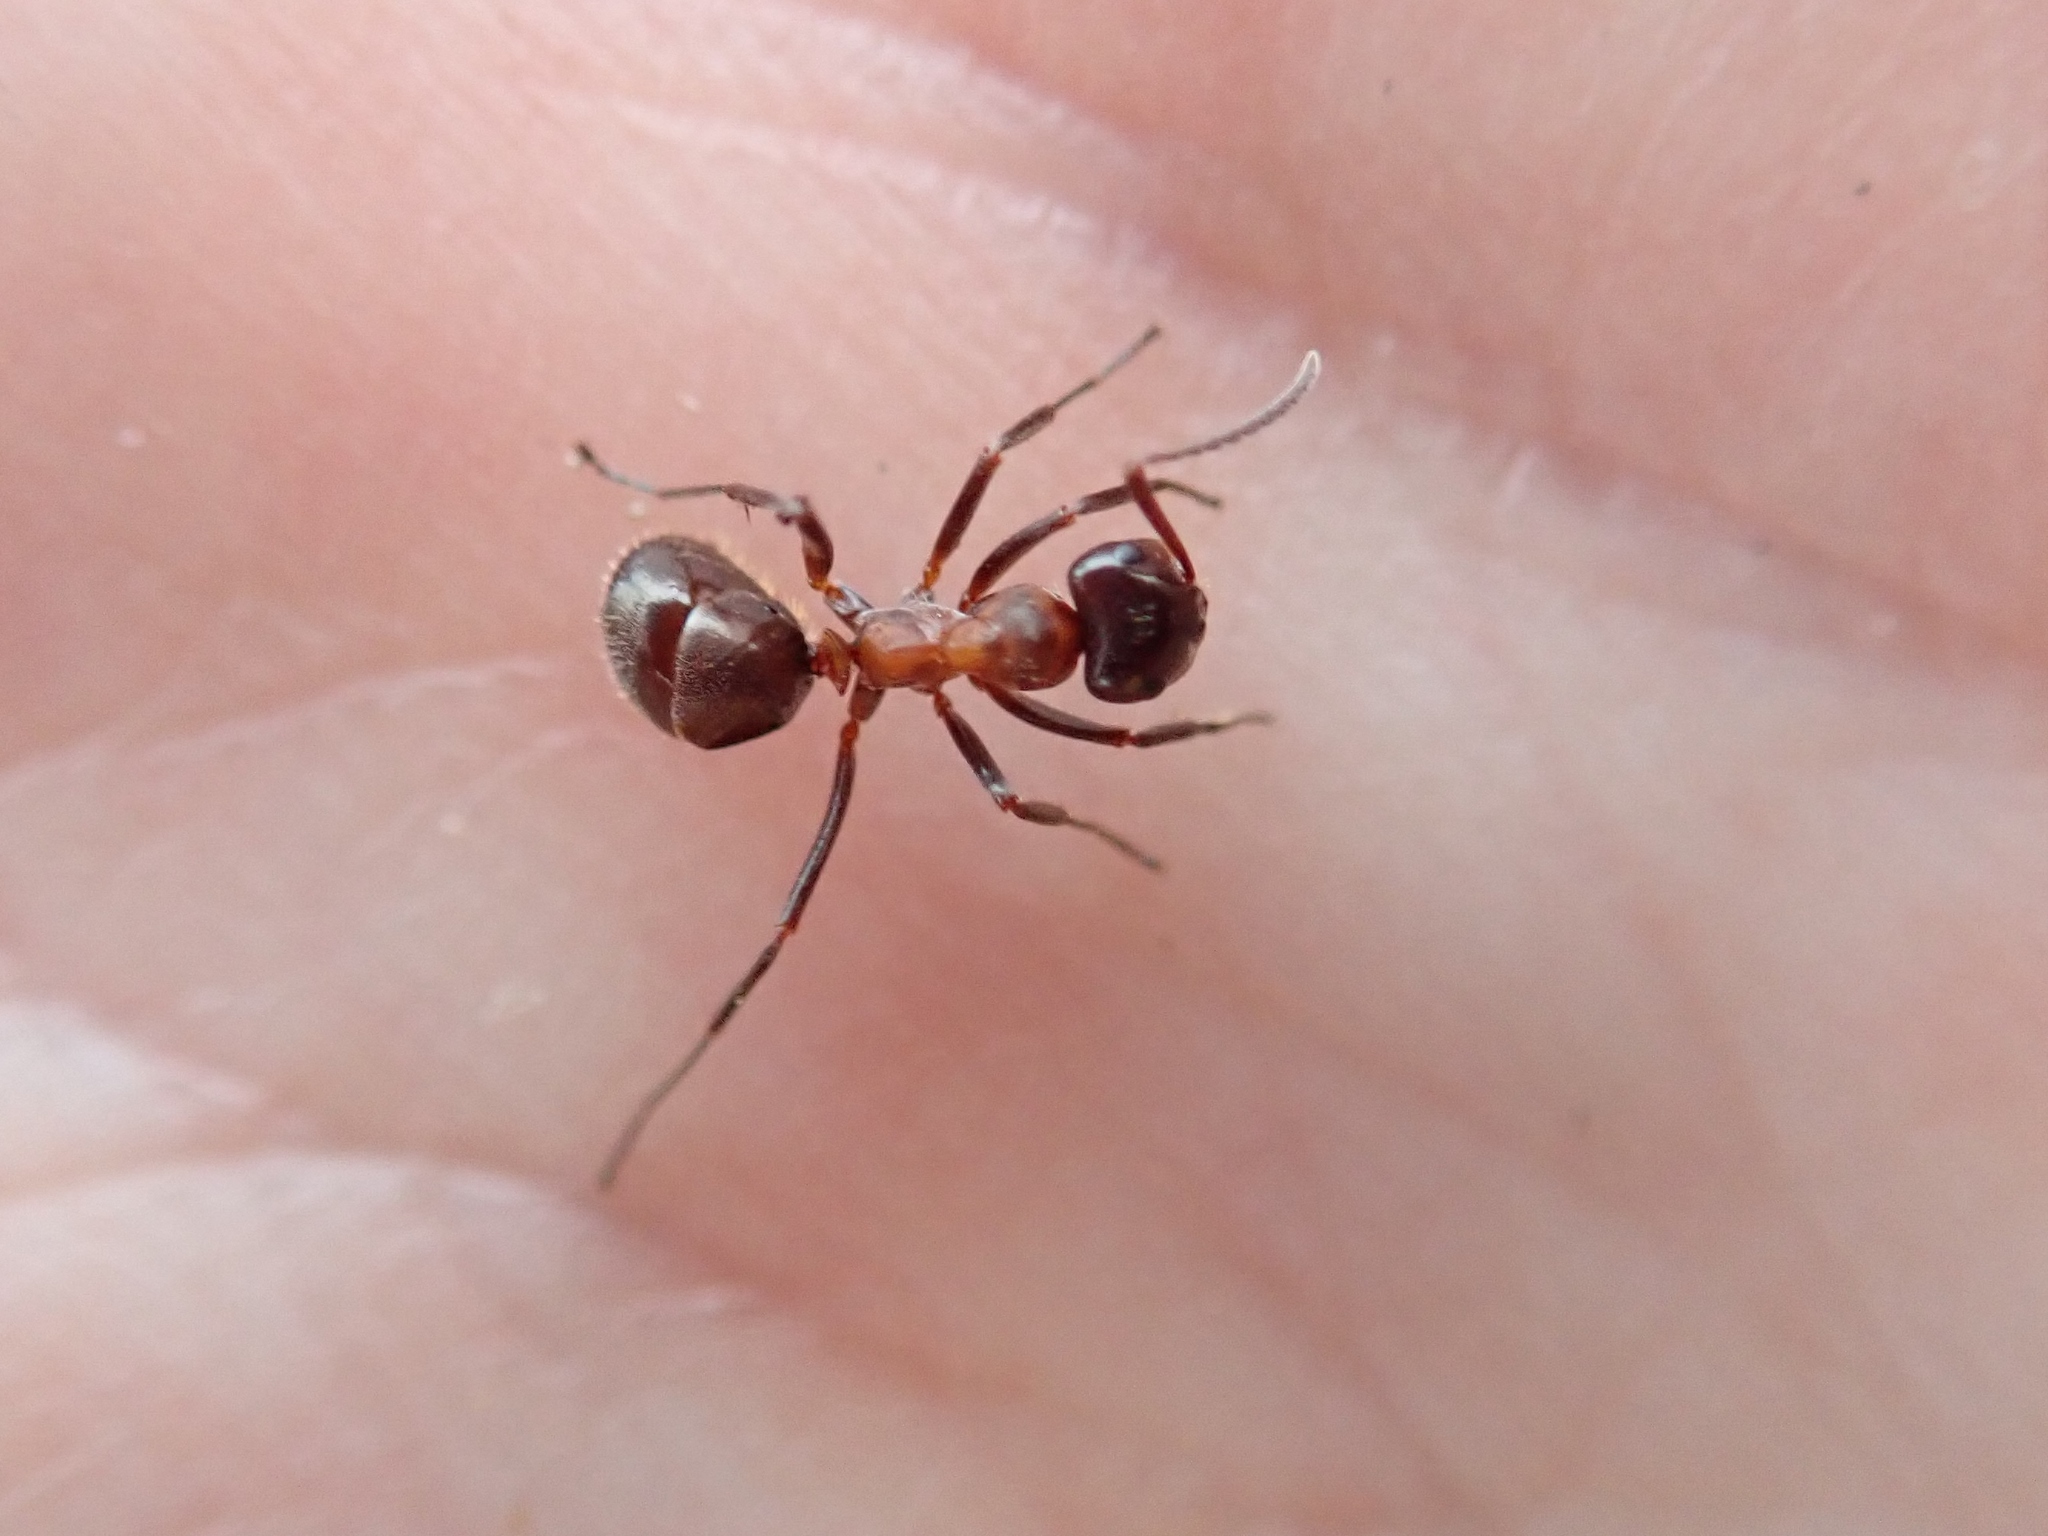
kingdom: Animalia
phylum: Arthropoda
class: Insecta
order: Hymenoptera
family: Formicidae
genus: Formica
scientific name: Formica ulkei
